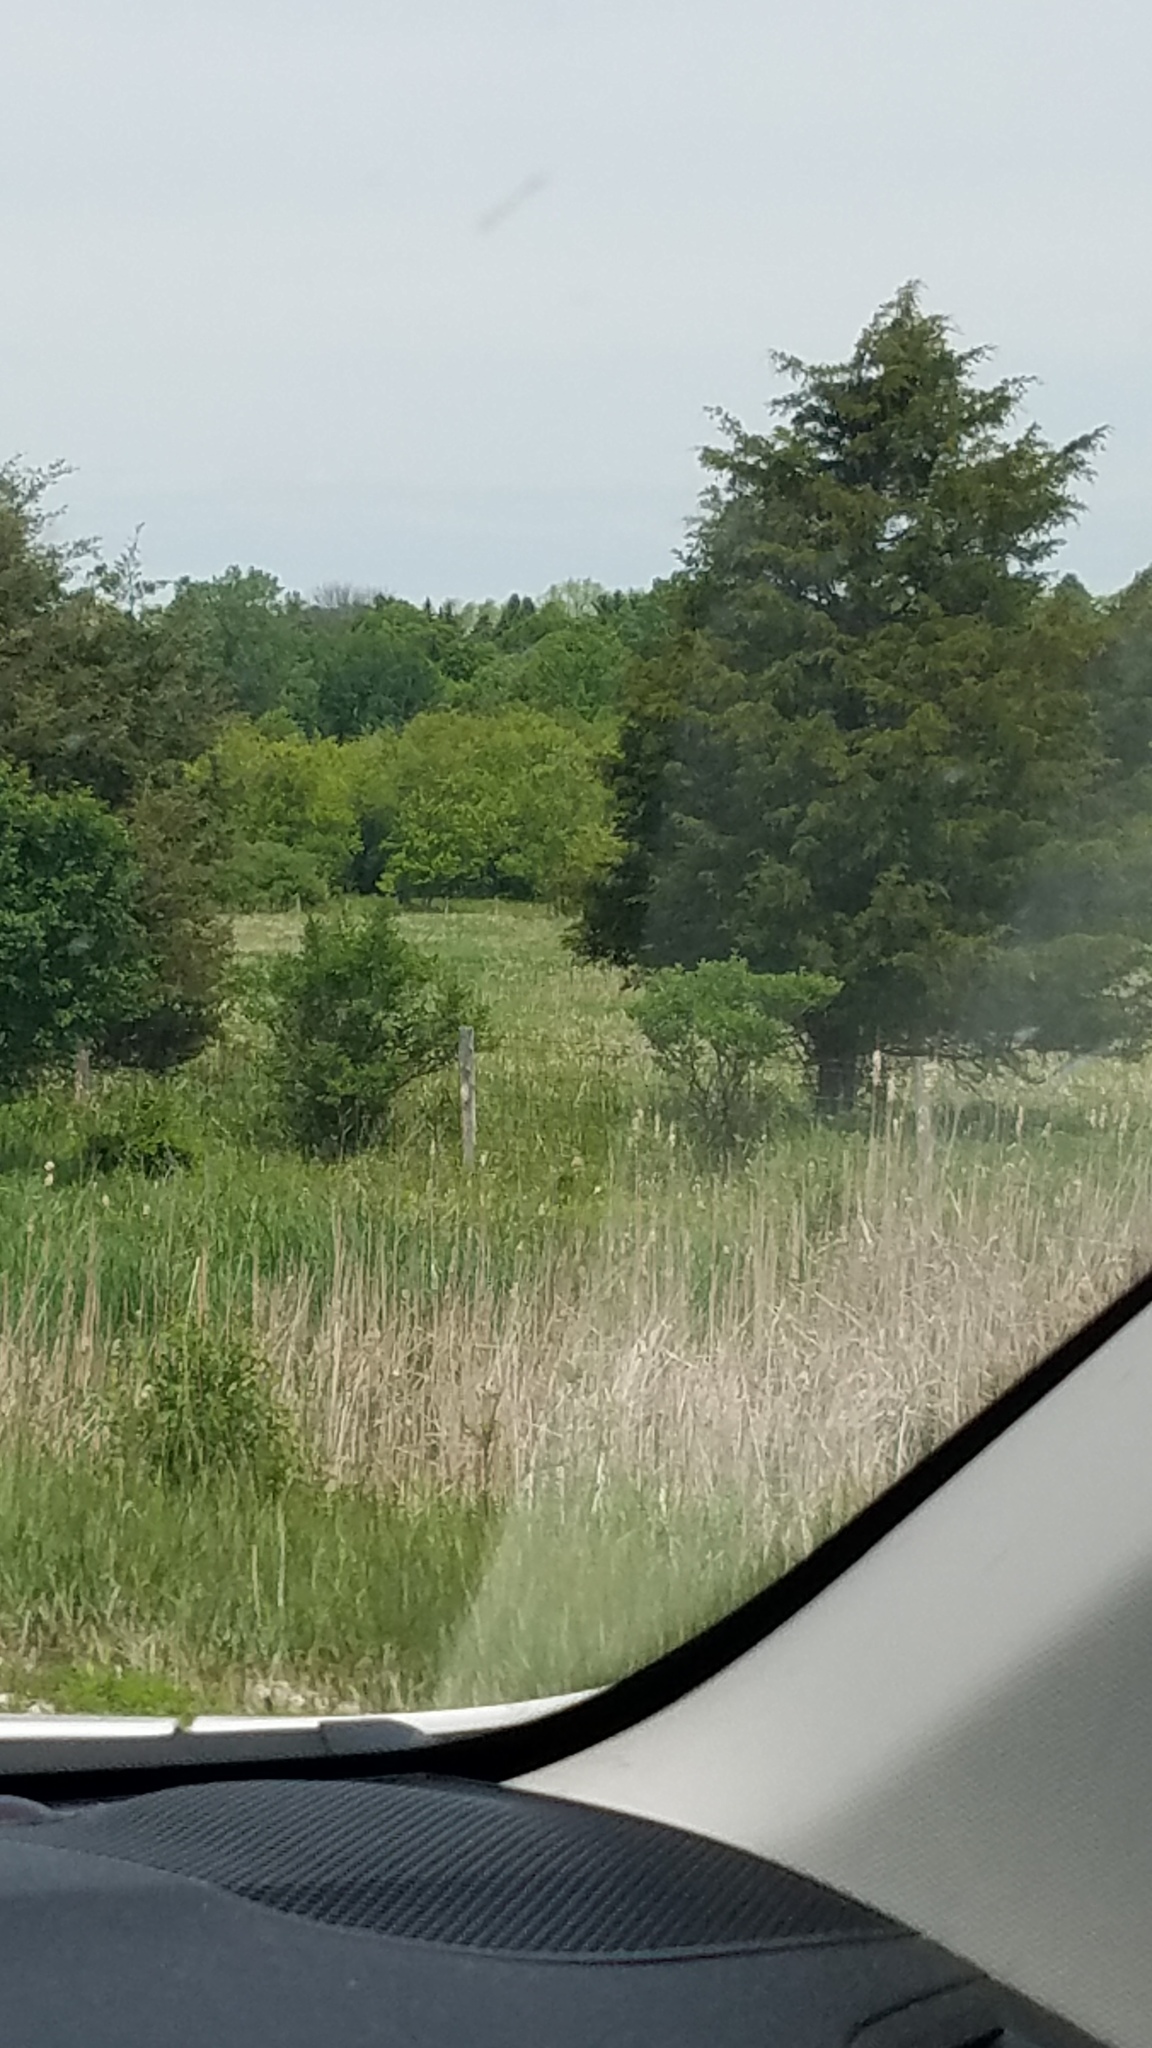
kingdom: Plantae
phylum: Tracheophyta
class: Pinopsida
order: Pinales
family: Cupressaceae
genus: Juniperus
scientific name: Juniperus virginiana
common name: Red juniper
